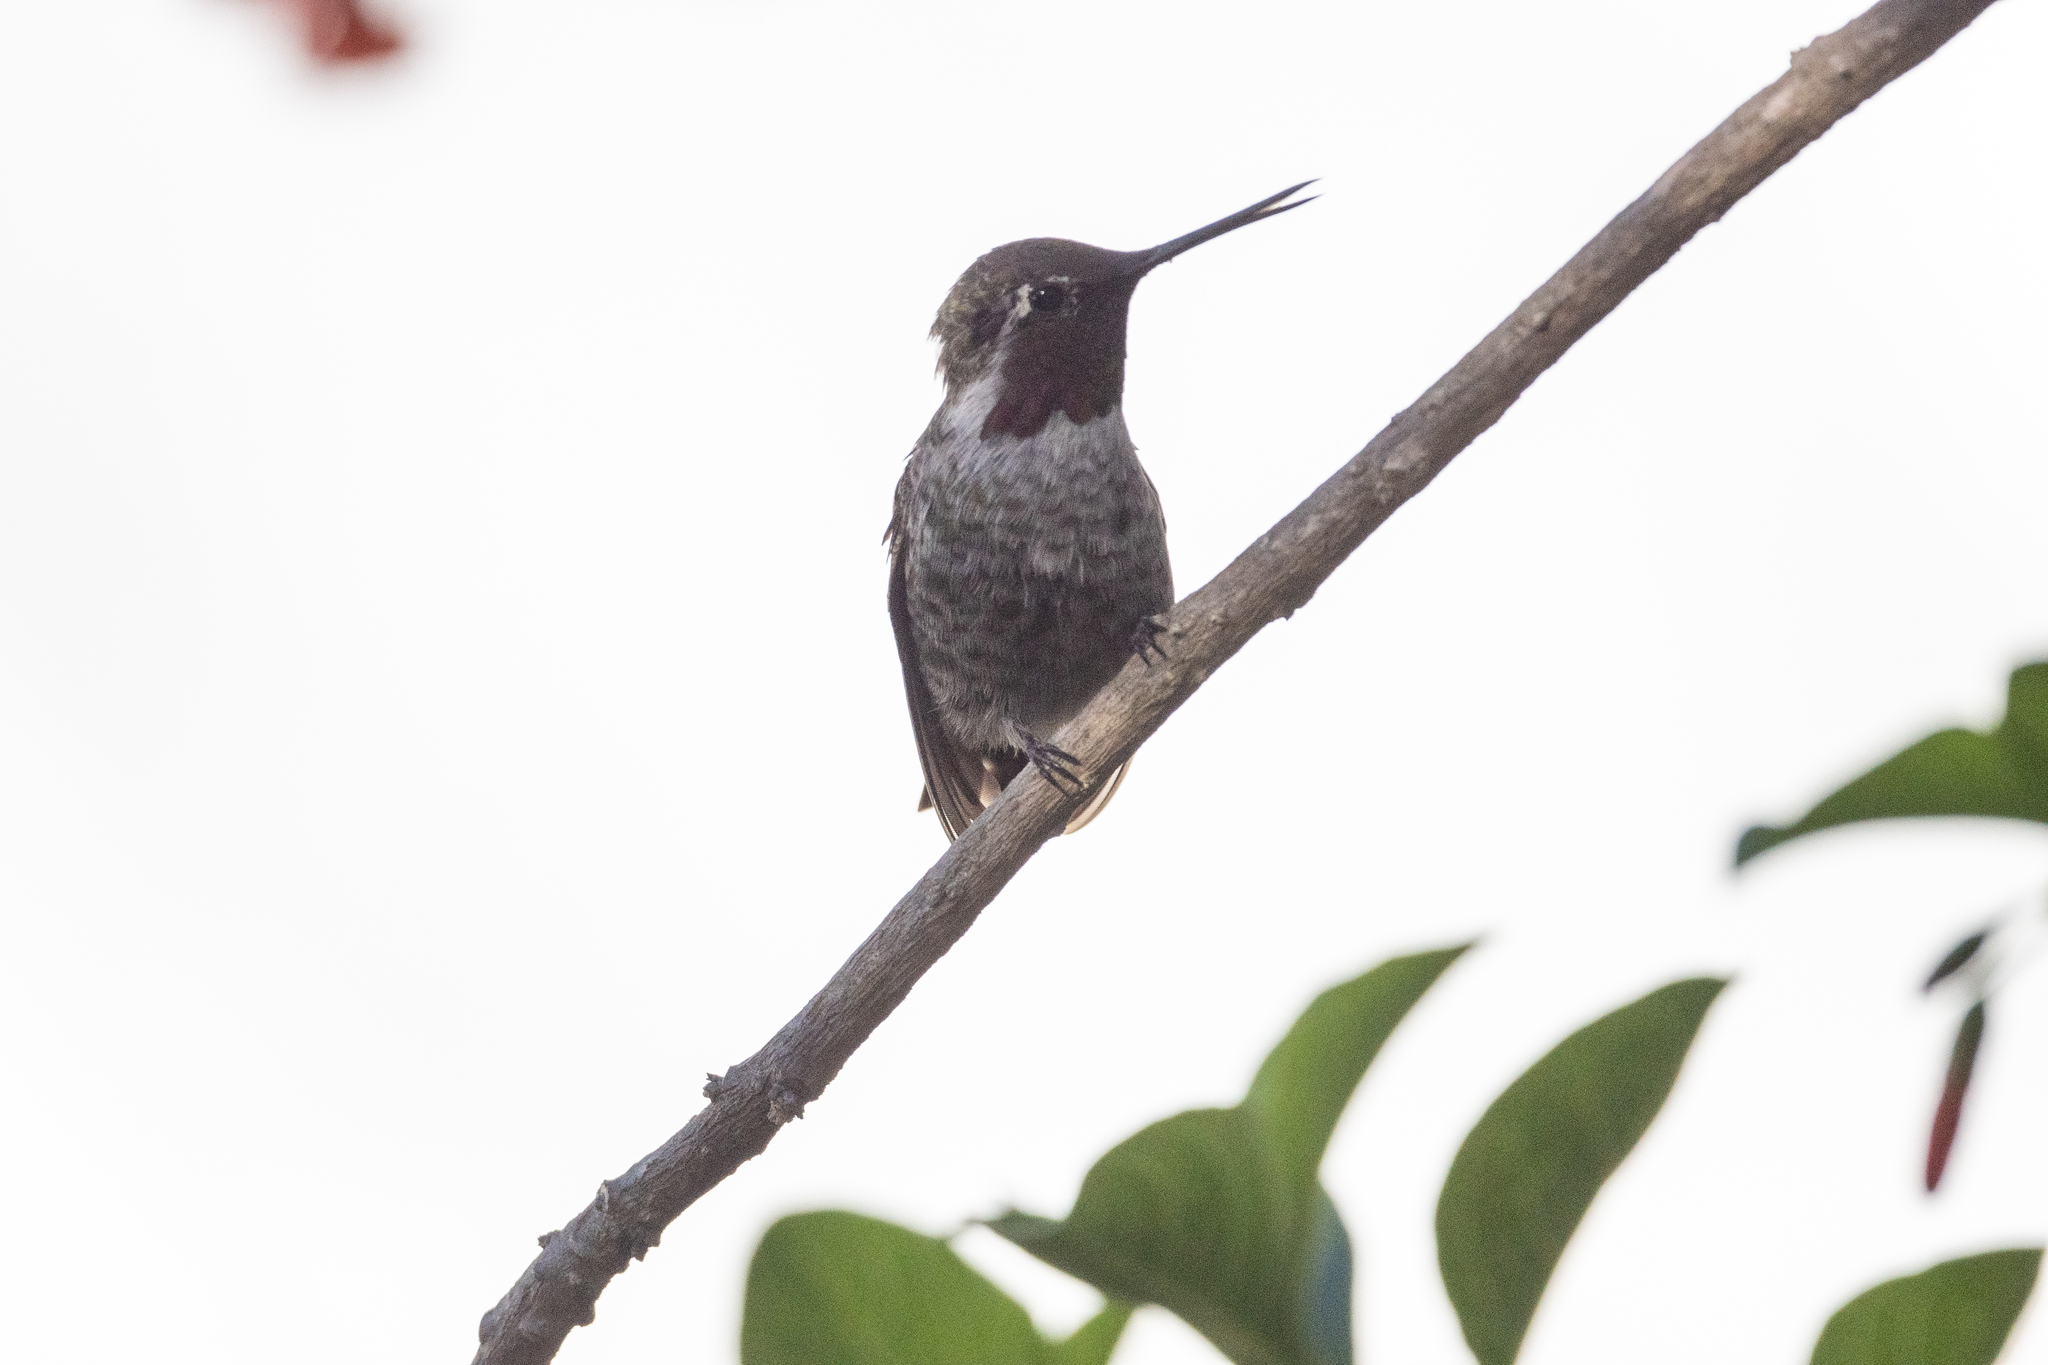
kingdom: Animalia
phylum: Chordata
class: Aves
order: Apodiformes
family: Trochilidae
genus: Calypte
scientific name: Calypte anna
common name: Anna's hummingbird
